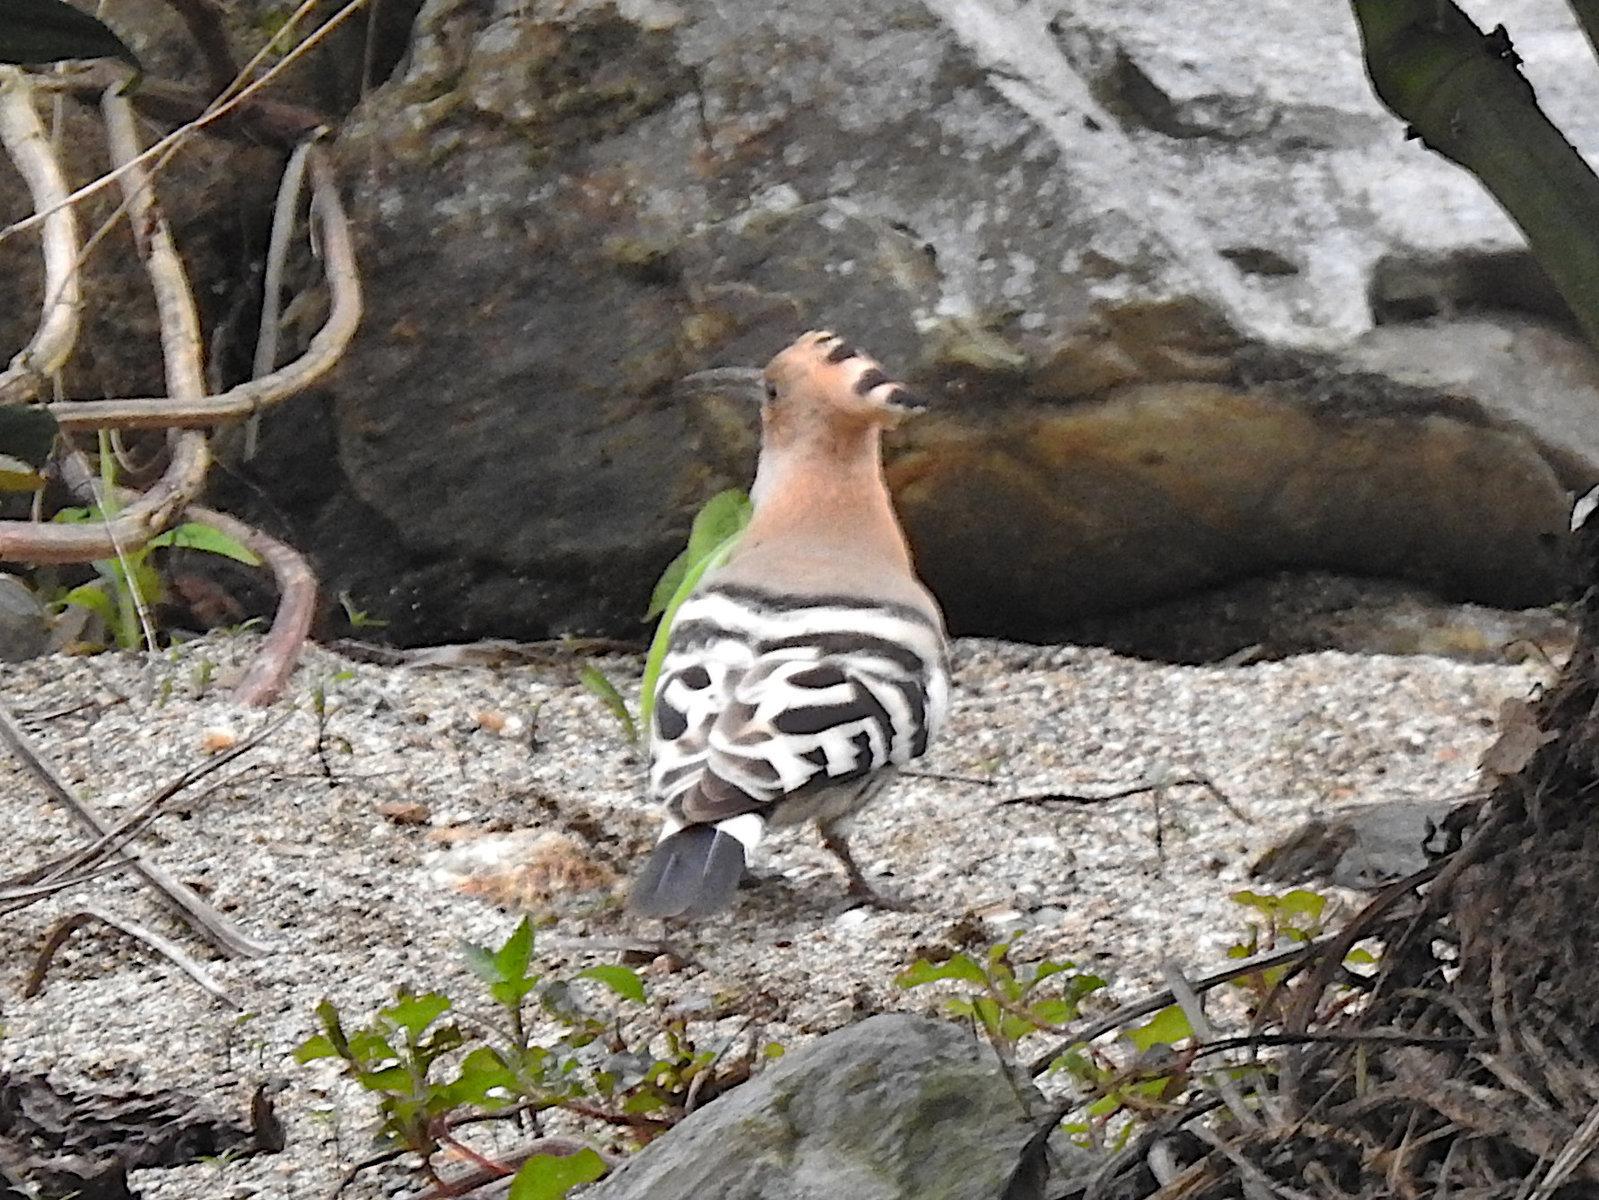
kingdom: Animalia
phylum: Chordata
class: Aves
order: Bucerotiformes
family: Upupidae
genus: Upupa
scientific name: Upupa epops
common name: Eurasian hoopoe
